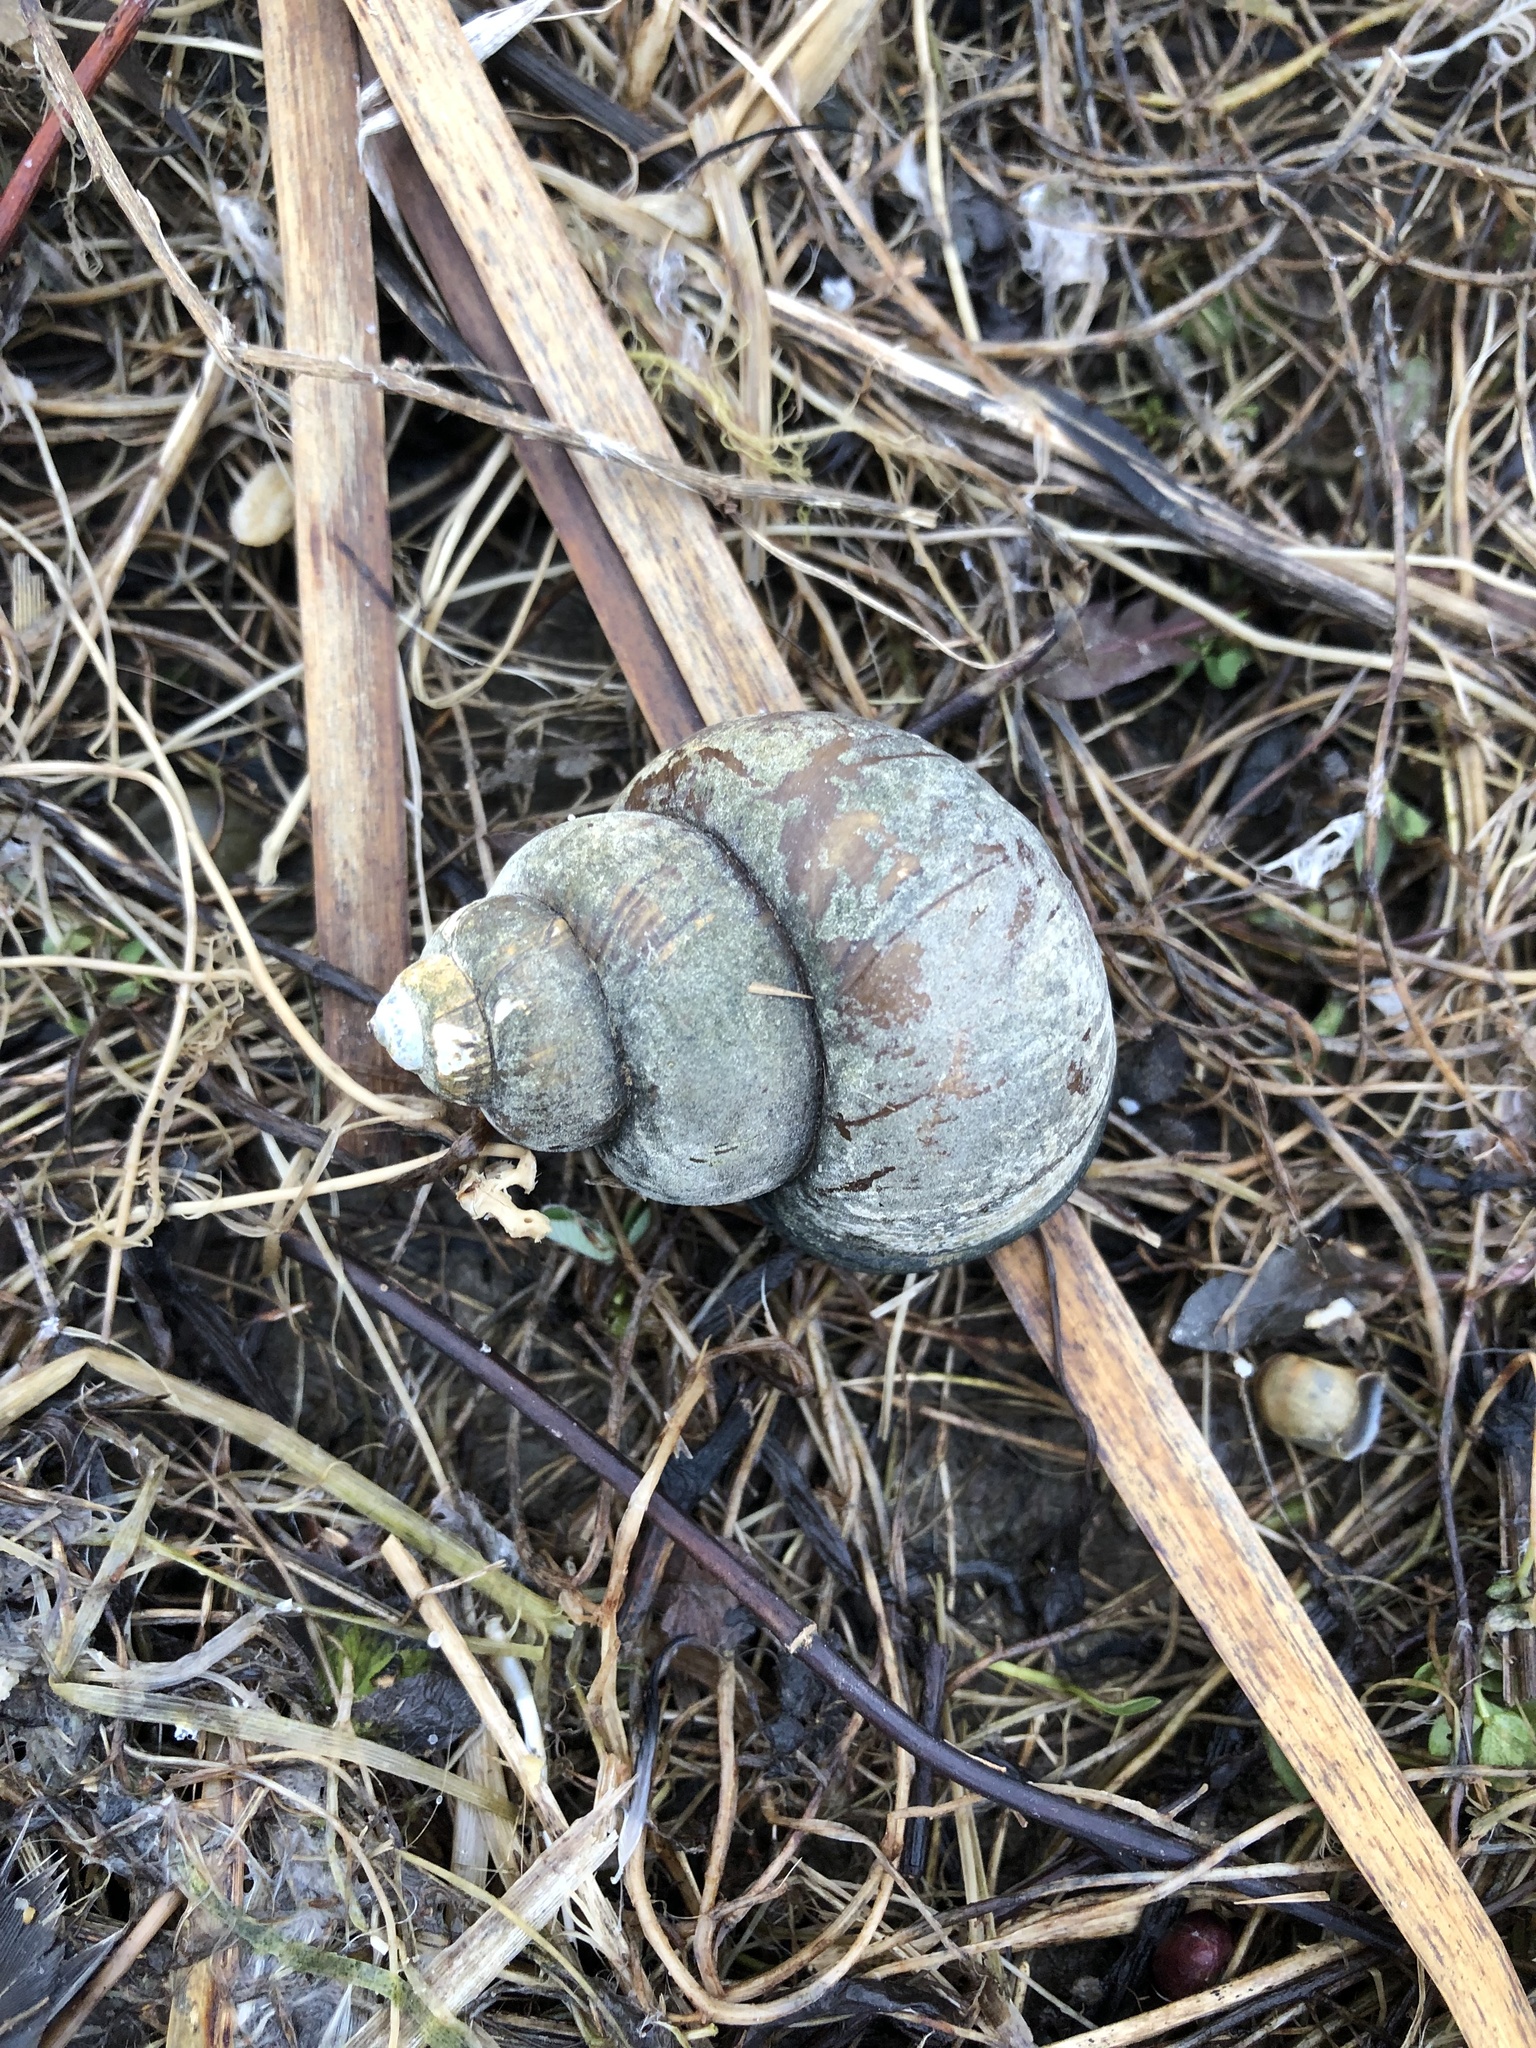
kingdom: Animalia
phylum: Mollusca
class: Gastropoda
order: Architaenioglossa
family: Viviparidae
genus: Cipangopaludina
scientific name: Cipangopaludina chinensis
